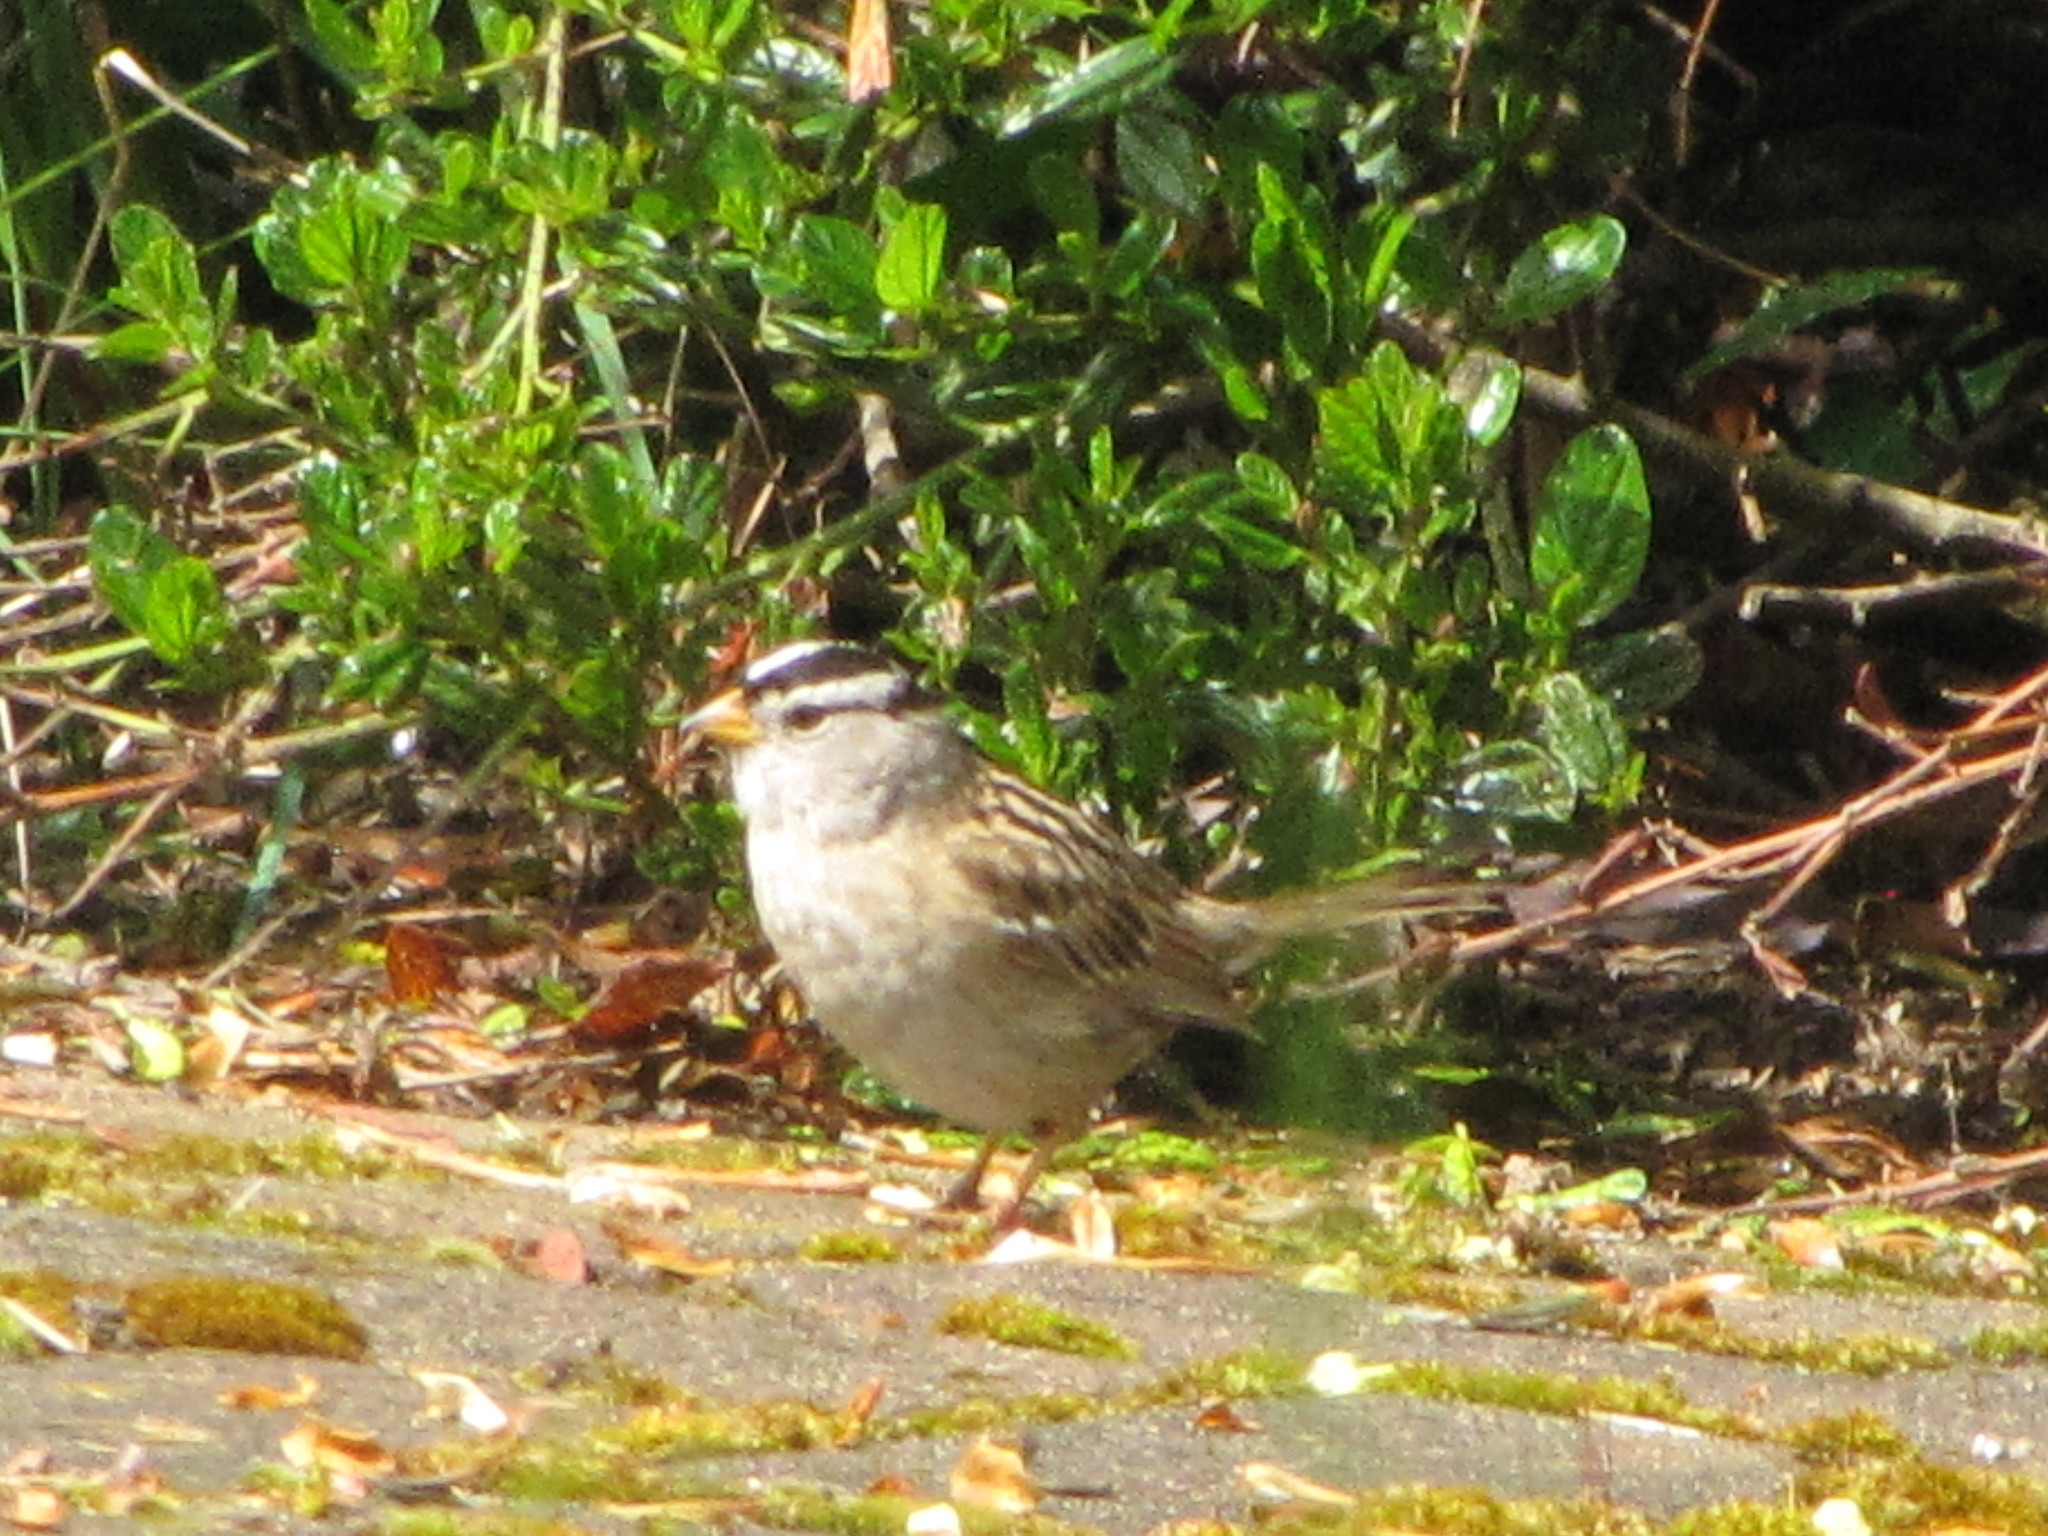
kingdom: Animalia
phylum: Chordata
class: Aves
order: Passeriformes
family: Passerellidae
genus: Zonotrichia
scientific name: Zonotrichia leucophrys
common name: White-crowned sparrow
